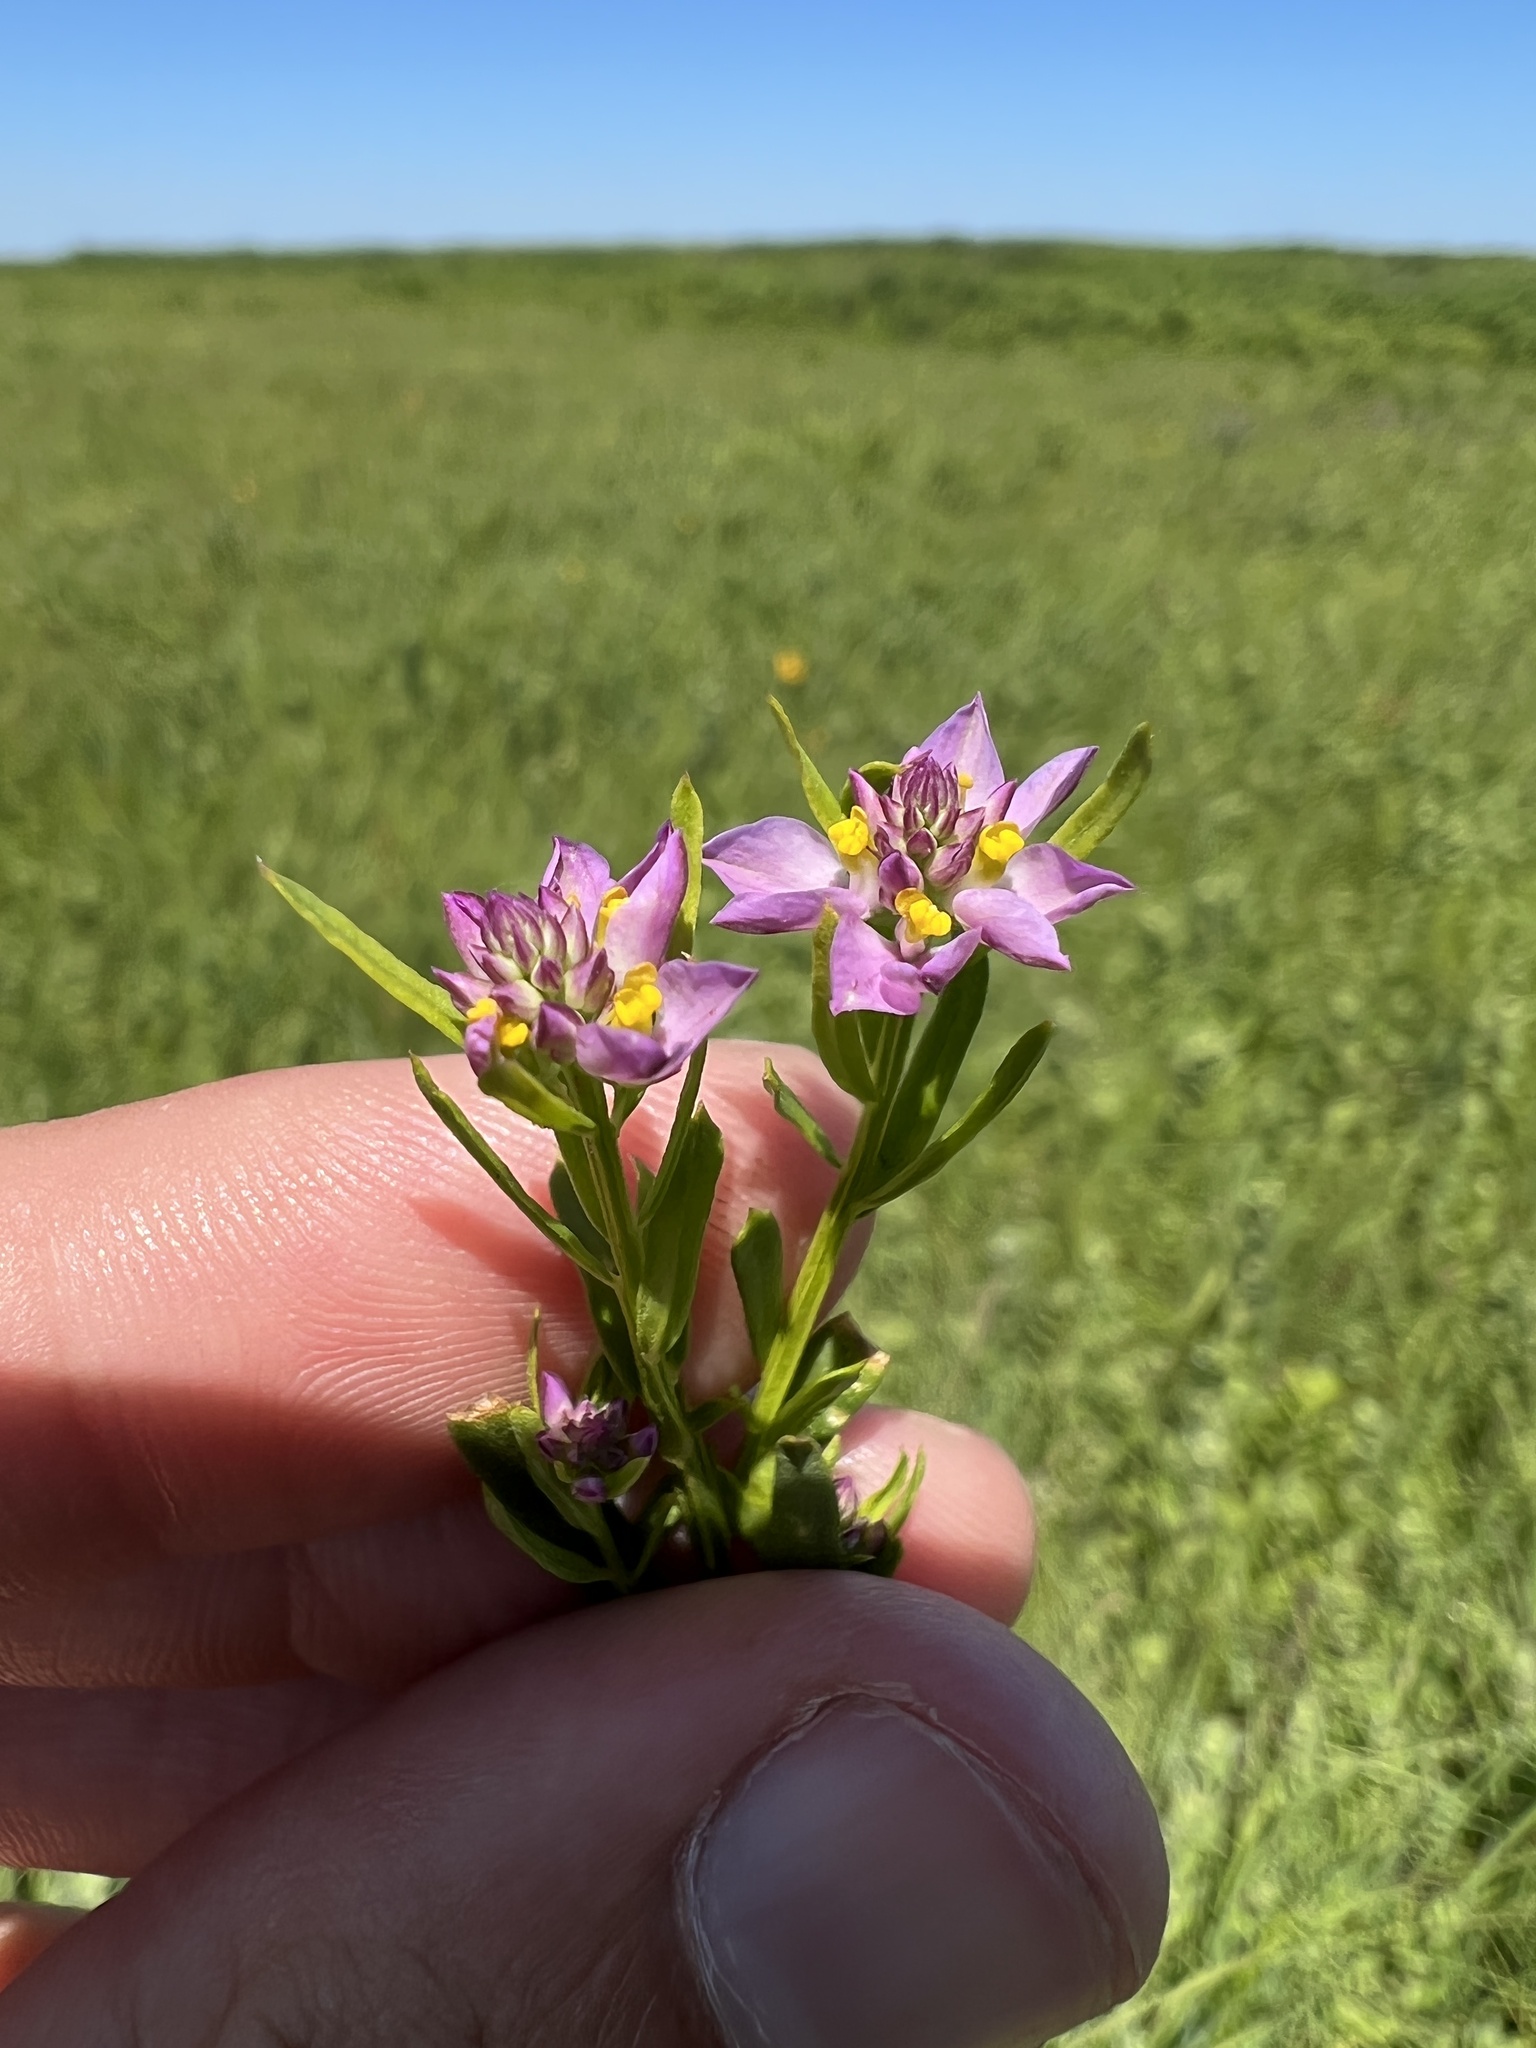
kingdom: Plantae
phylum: Tracheophyta
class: Magnoliopsida
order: Fabales
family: Polygalaceae
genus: Polygala
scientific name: Polygala sanguinea
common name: Blood milkwort
